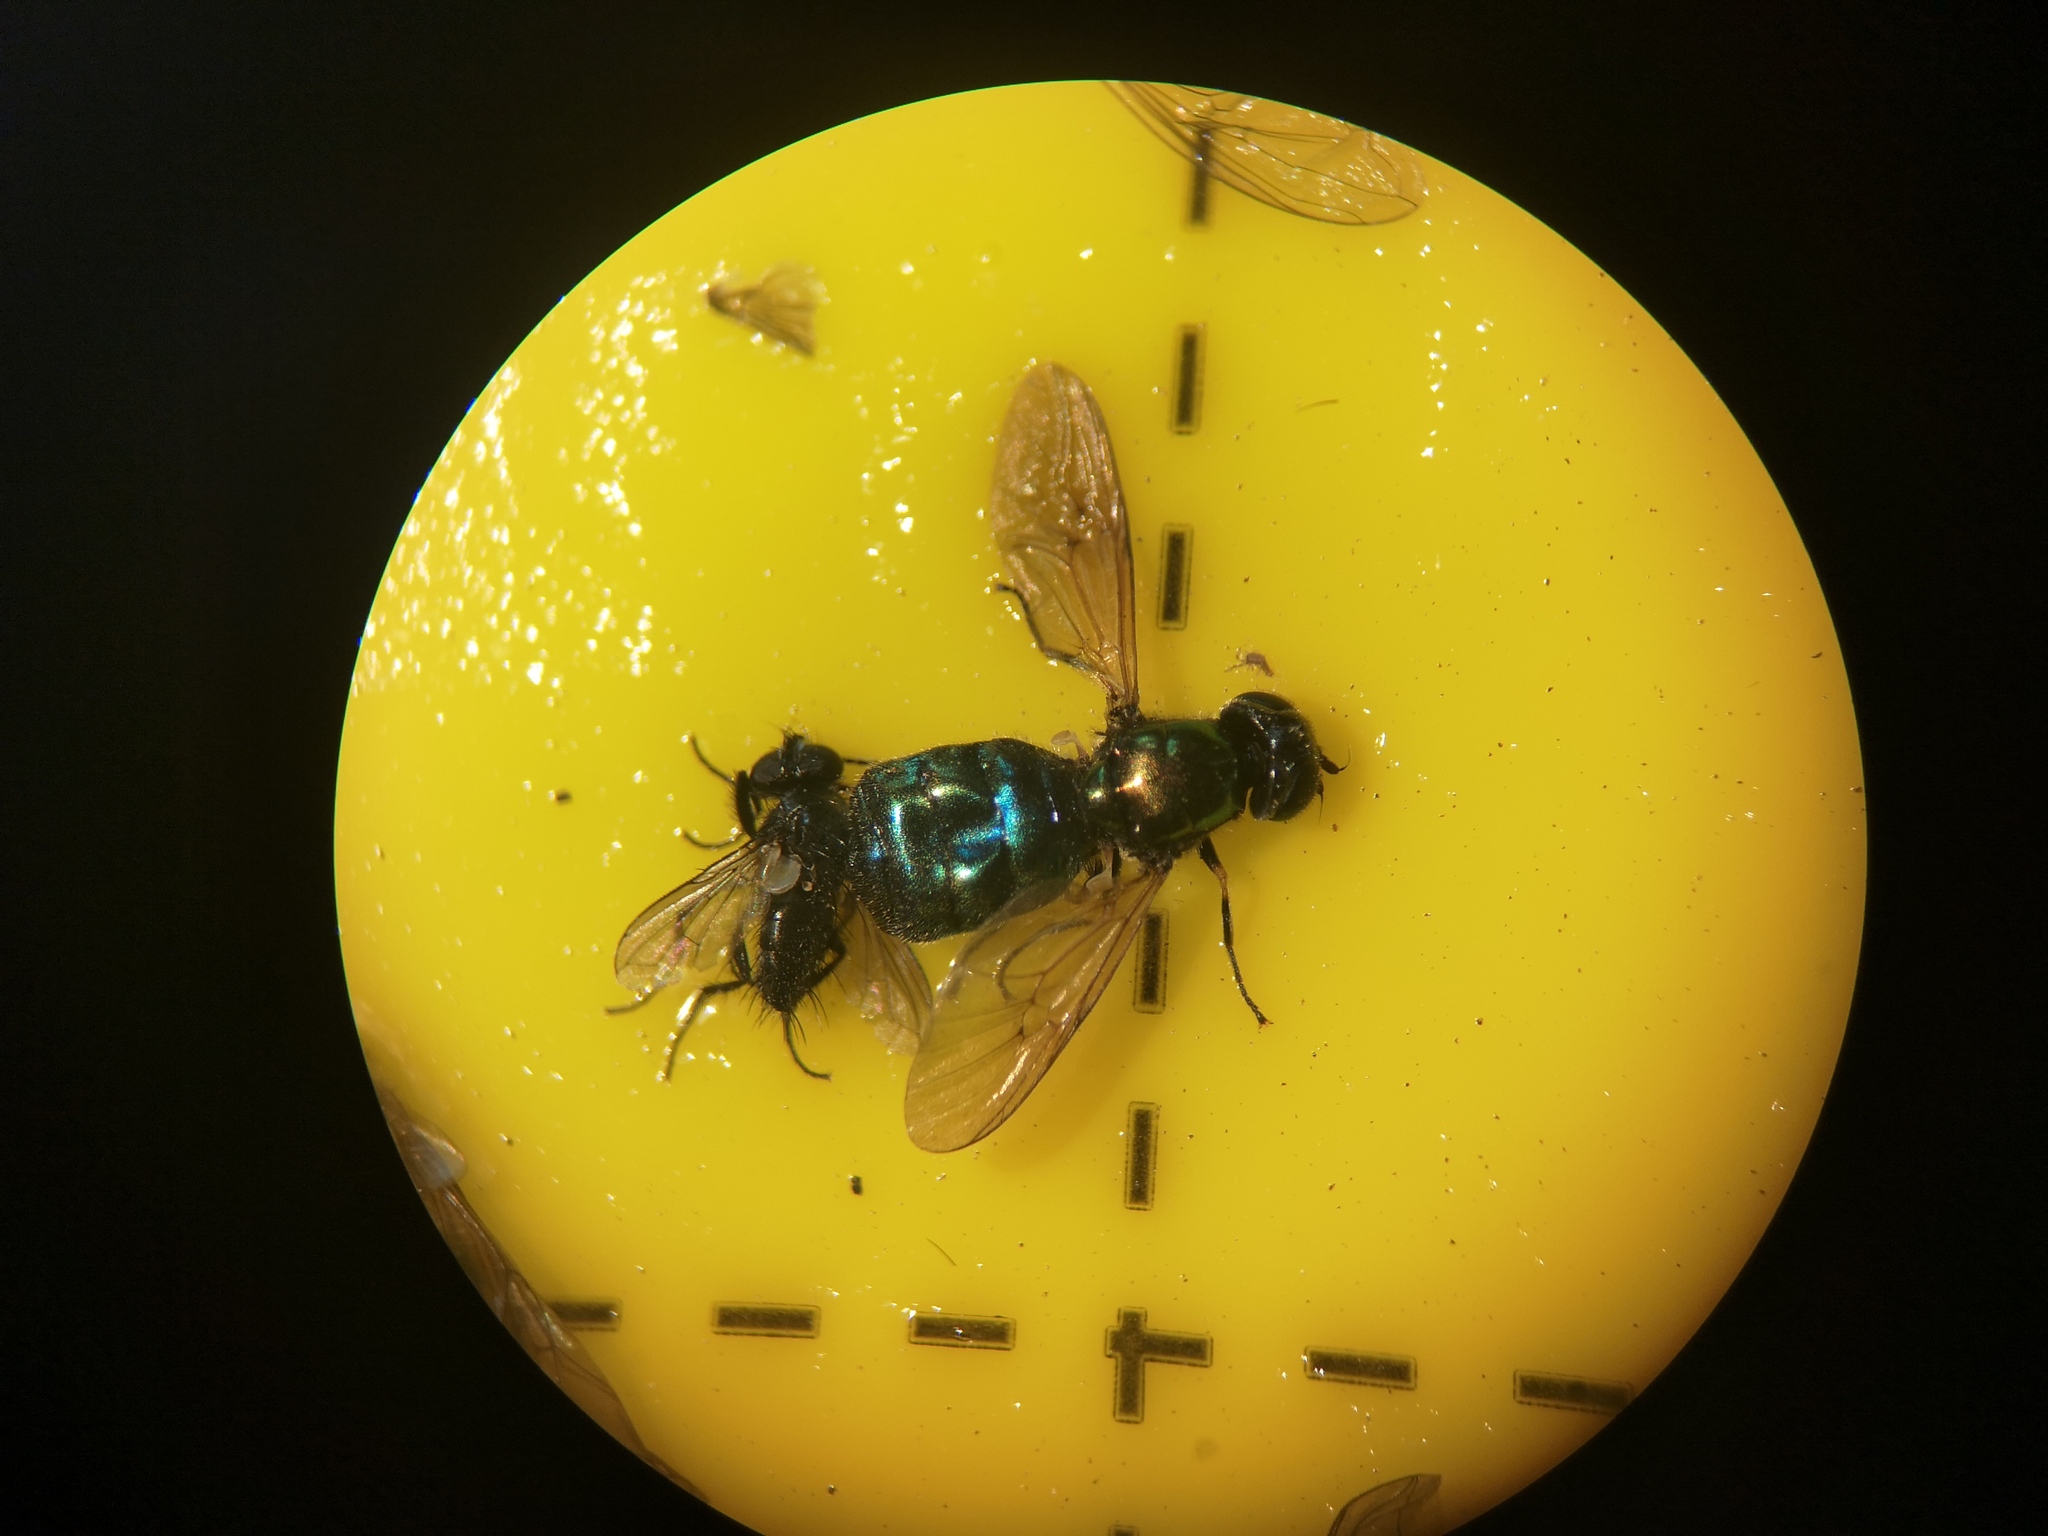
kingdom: Animalia
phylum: Arthropoda
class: Insecta
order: Diptera
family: Stratiomyidae
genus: Chloromyia
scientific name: Chloromyia formosa
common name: Soldier fly
